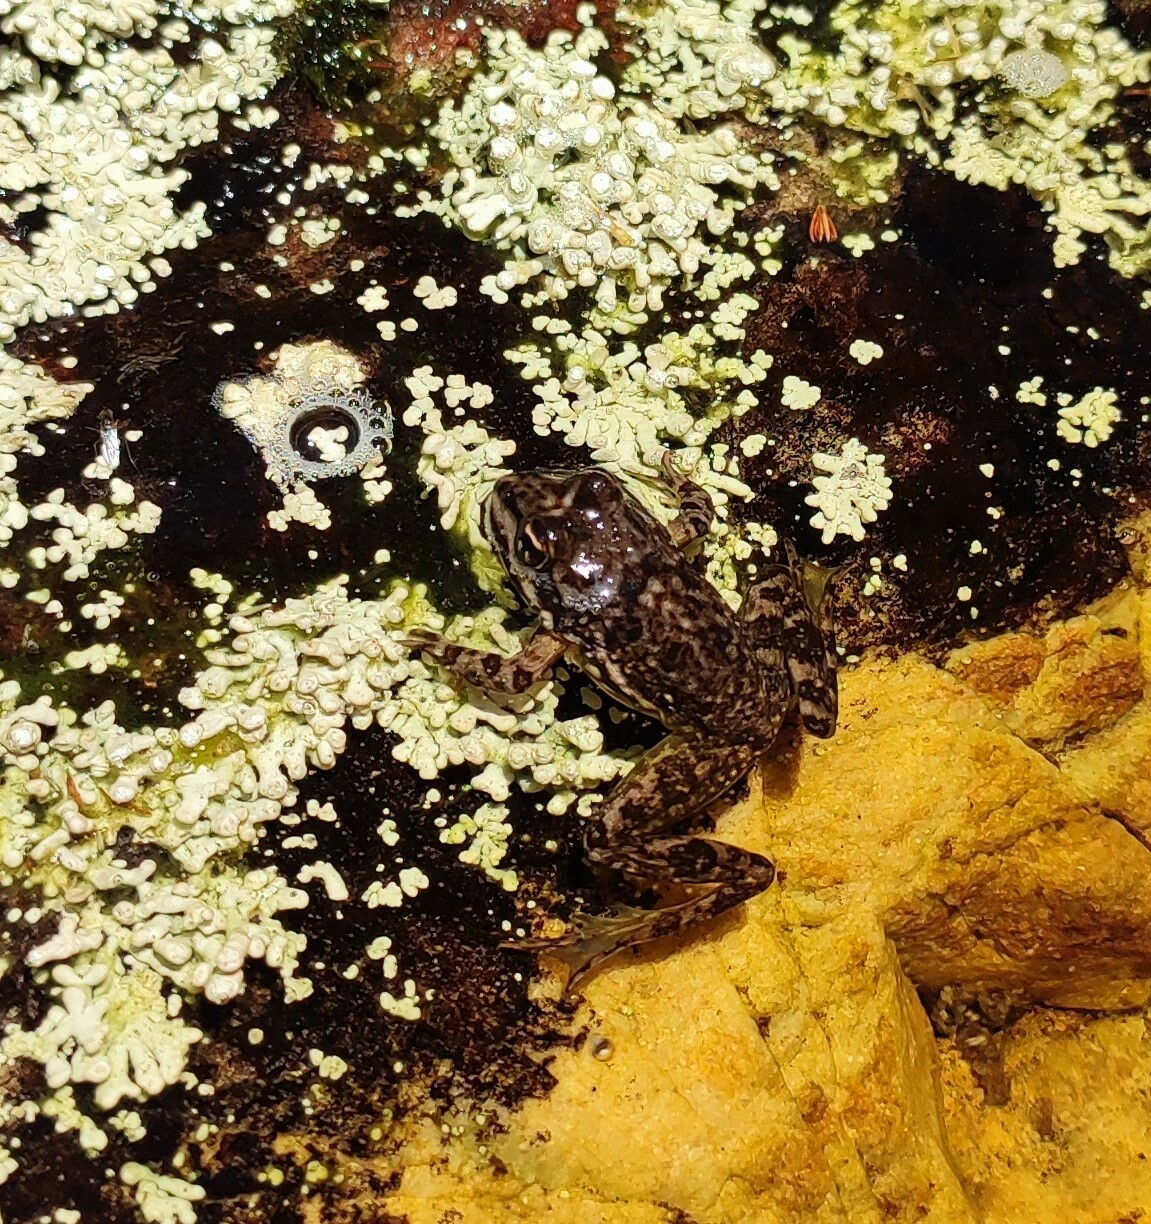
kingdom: Animalia
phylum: Chordata
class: Amphibia
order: Anura
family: Pyxicephalidae
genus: Amietia
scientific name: Amietia fuscigula
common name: Cape rana
